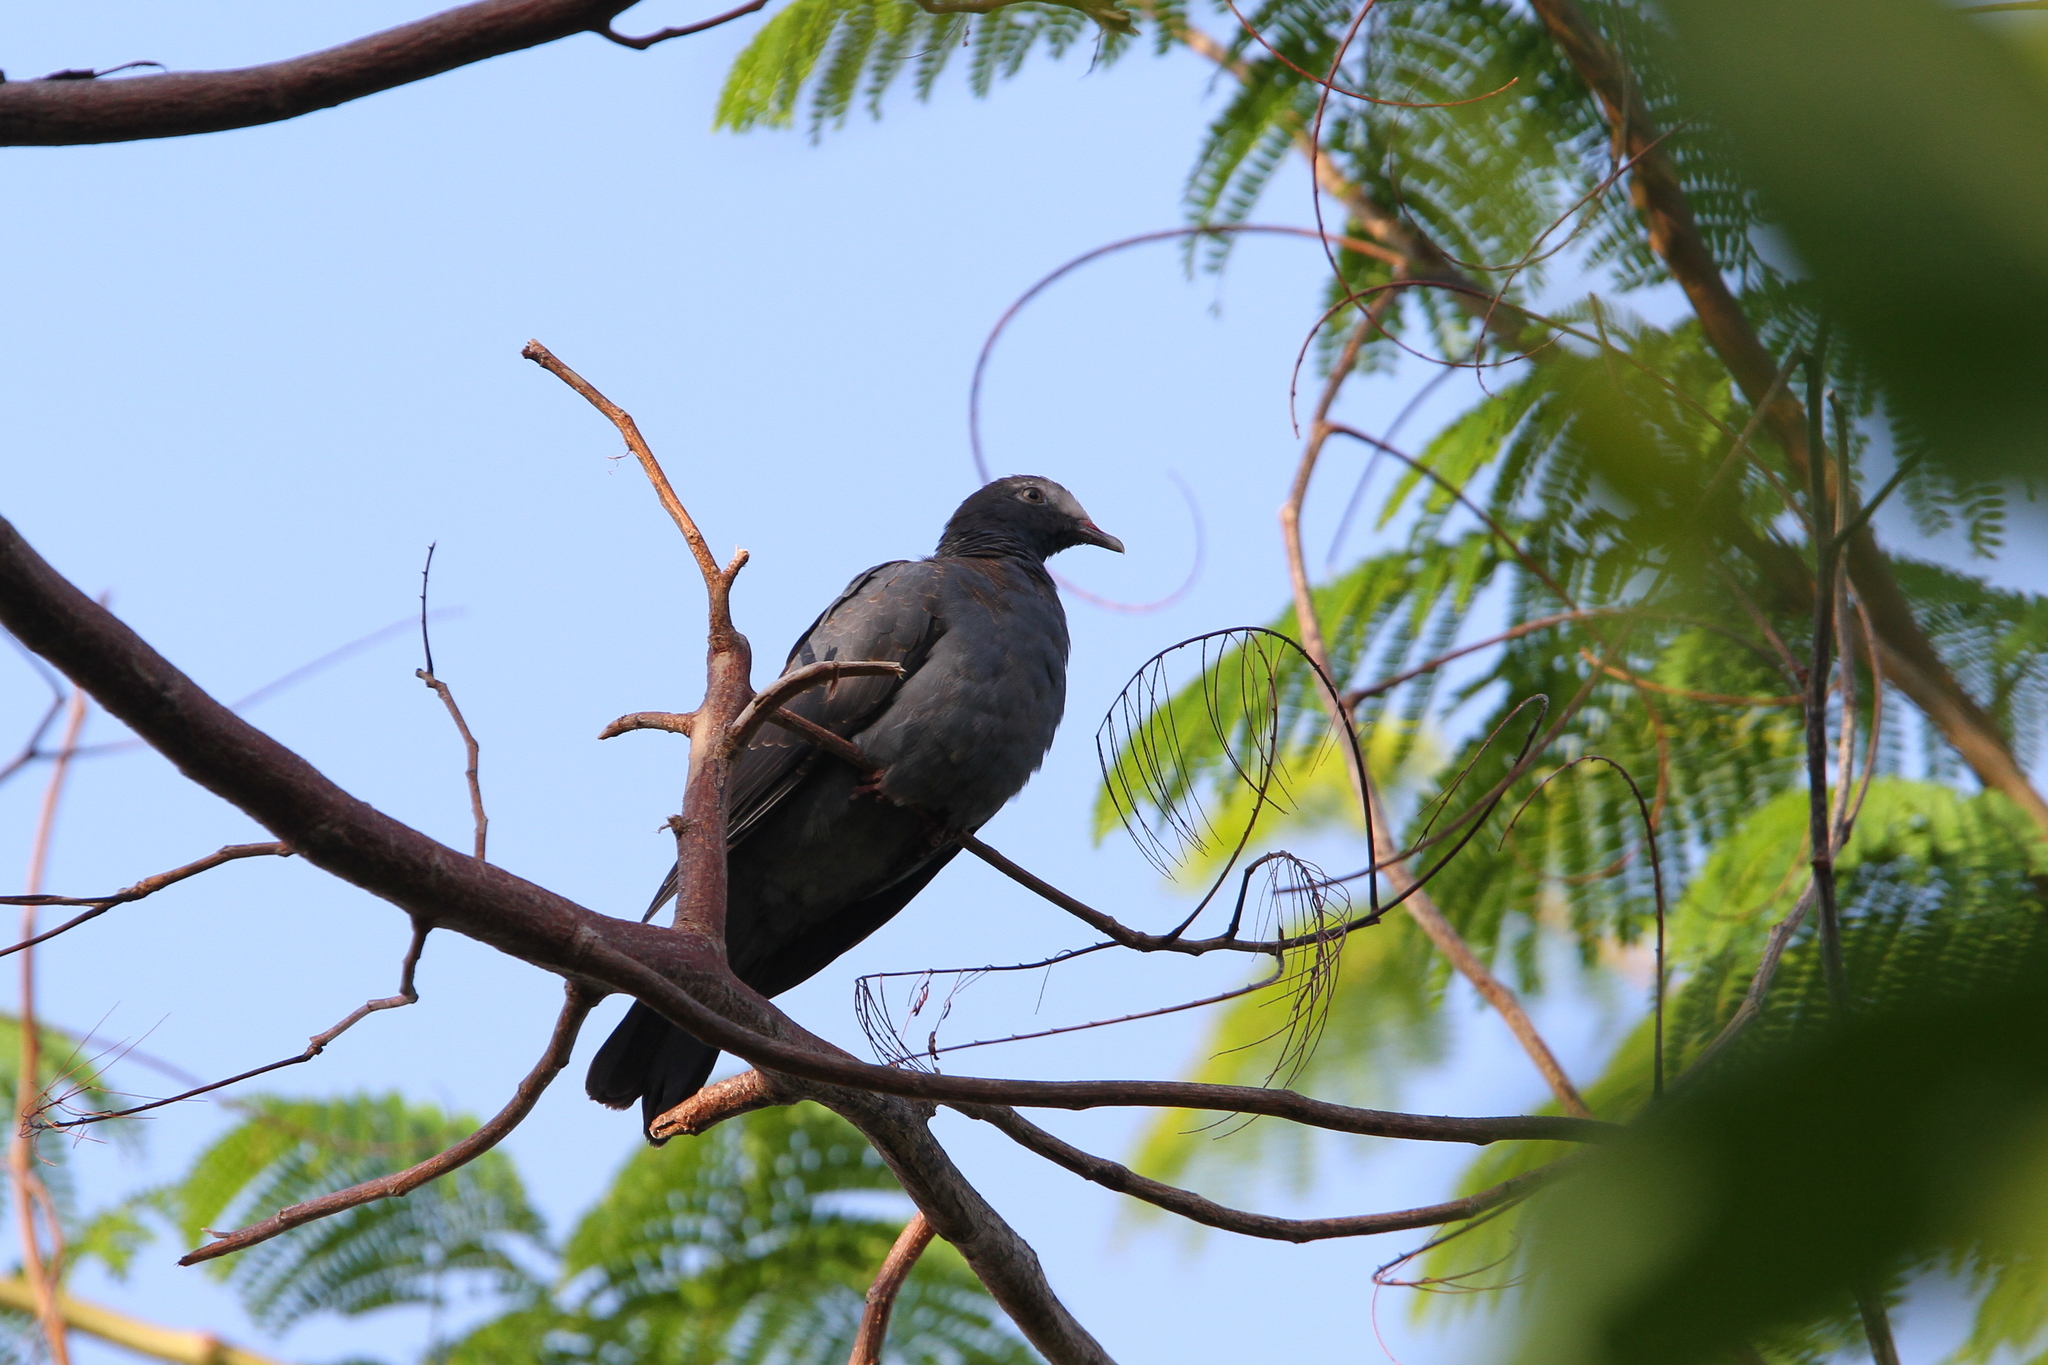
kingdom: Animalia
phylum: Chordata
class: Aves
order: Columbiformes
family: Columbidae
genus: Patagioenas
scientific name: Patagioenas leucocephala
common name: White-crowned pigeon
